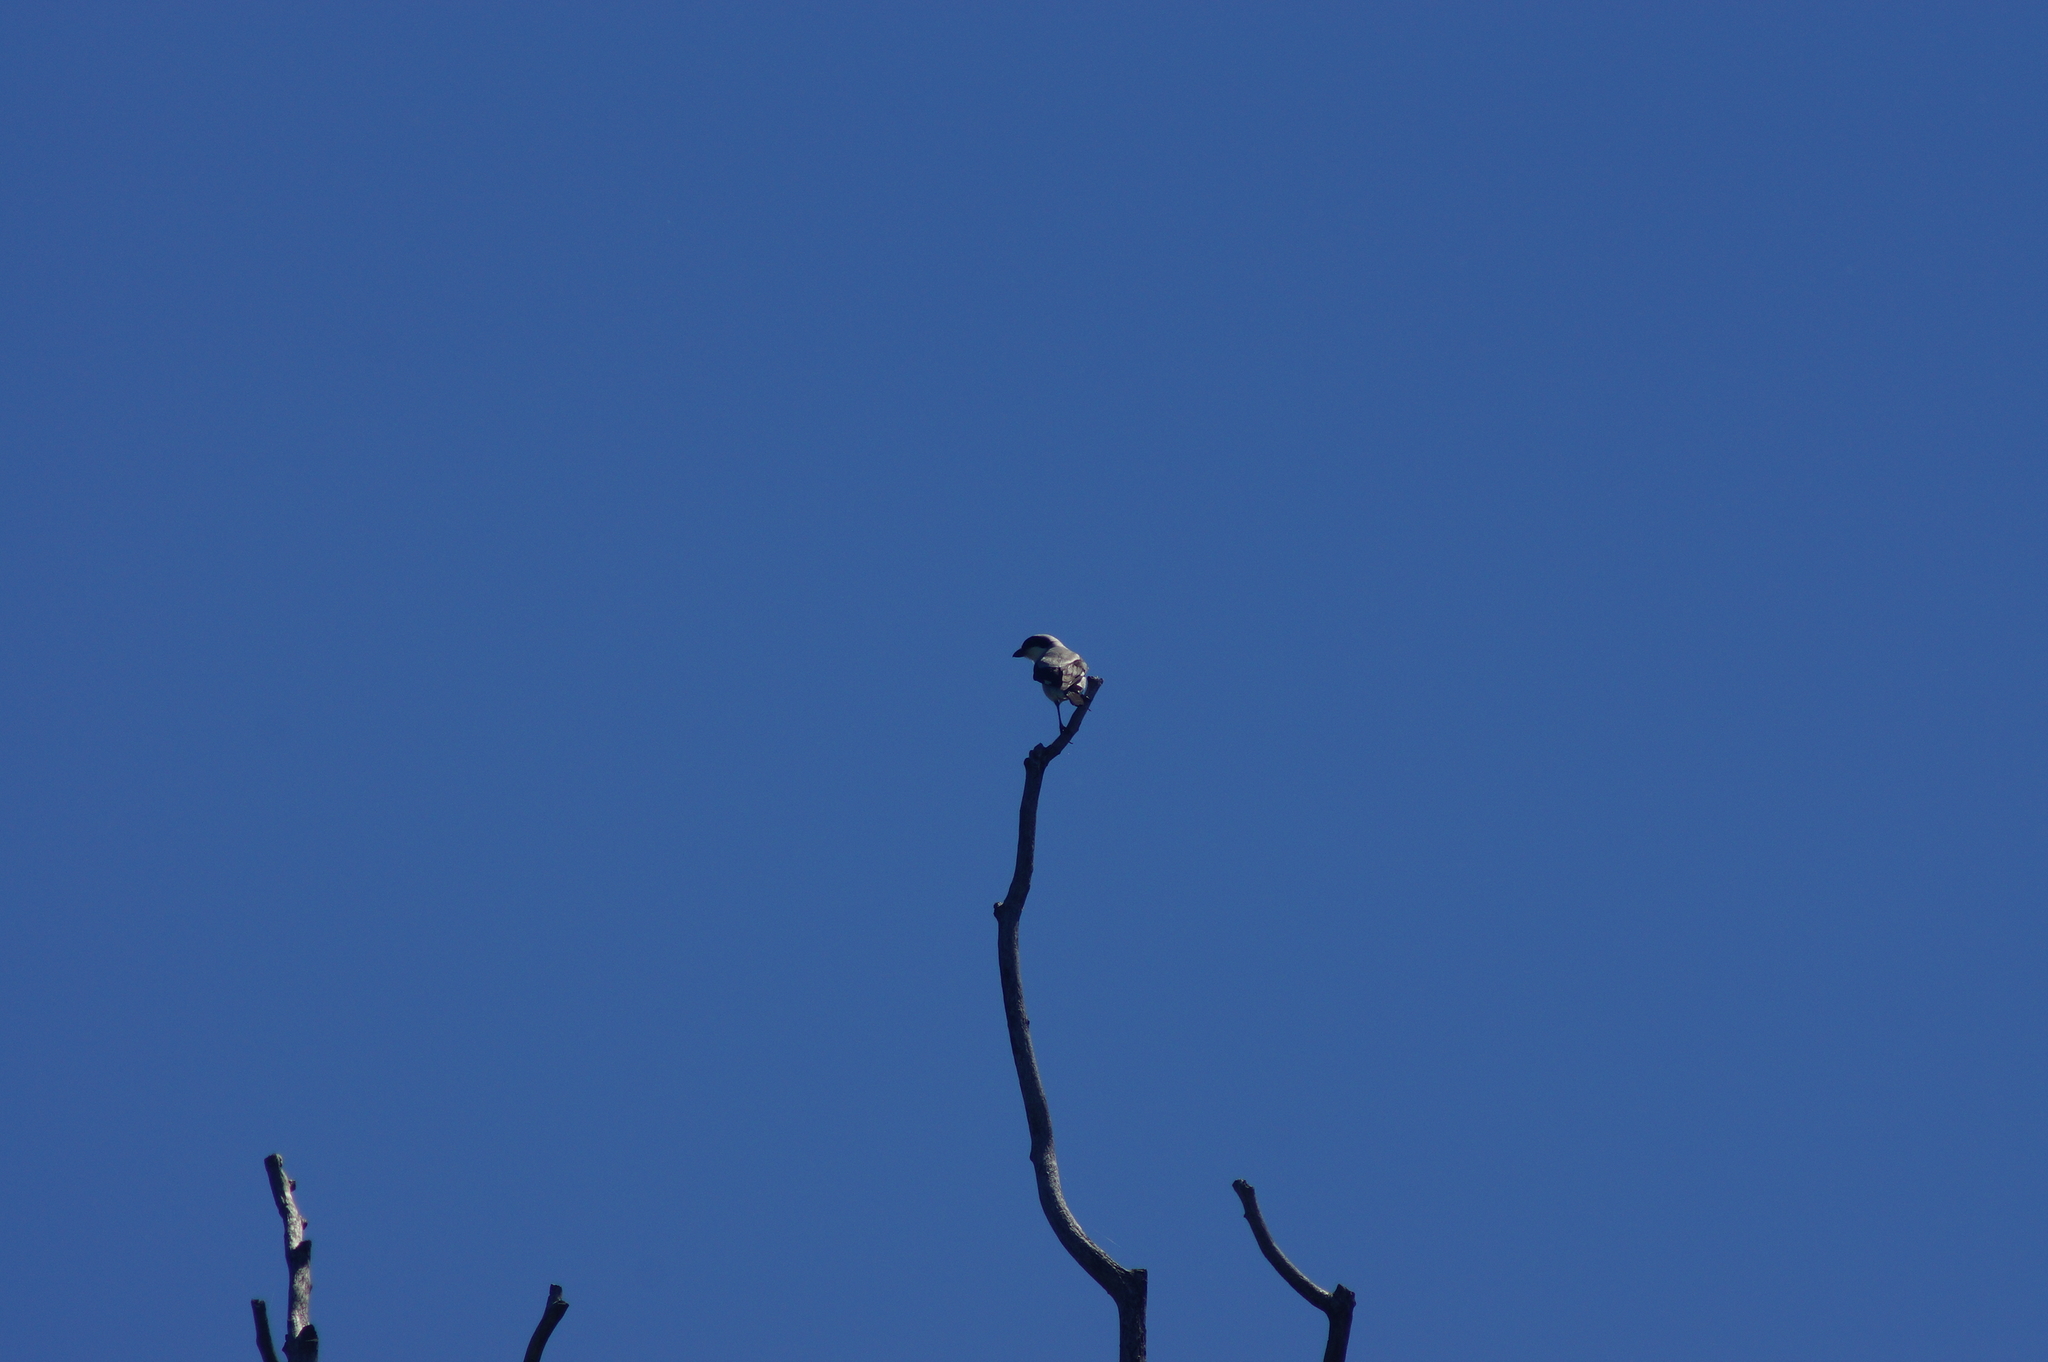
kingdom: Animalia
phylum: Chordata
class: Aves
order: Passeriformes
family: Laniidae
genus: Lanius
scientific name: Lanius minor
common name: Lesser grey shrike
